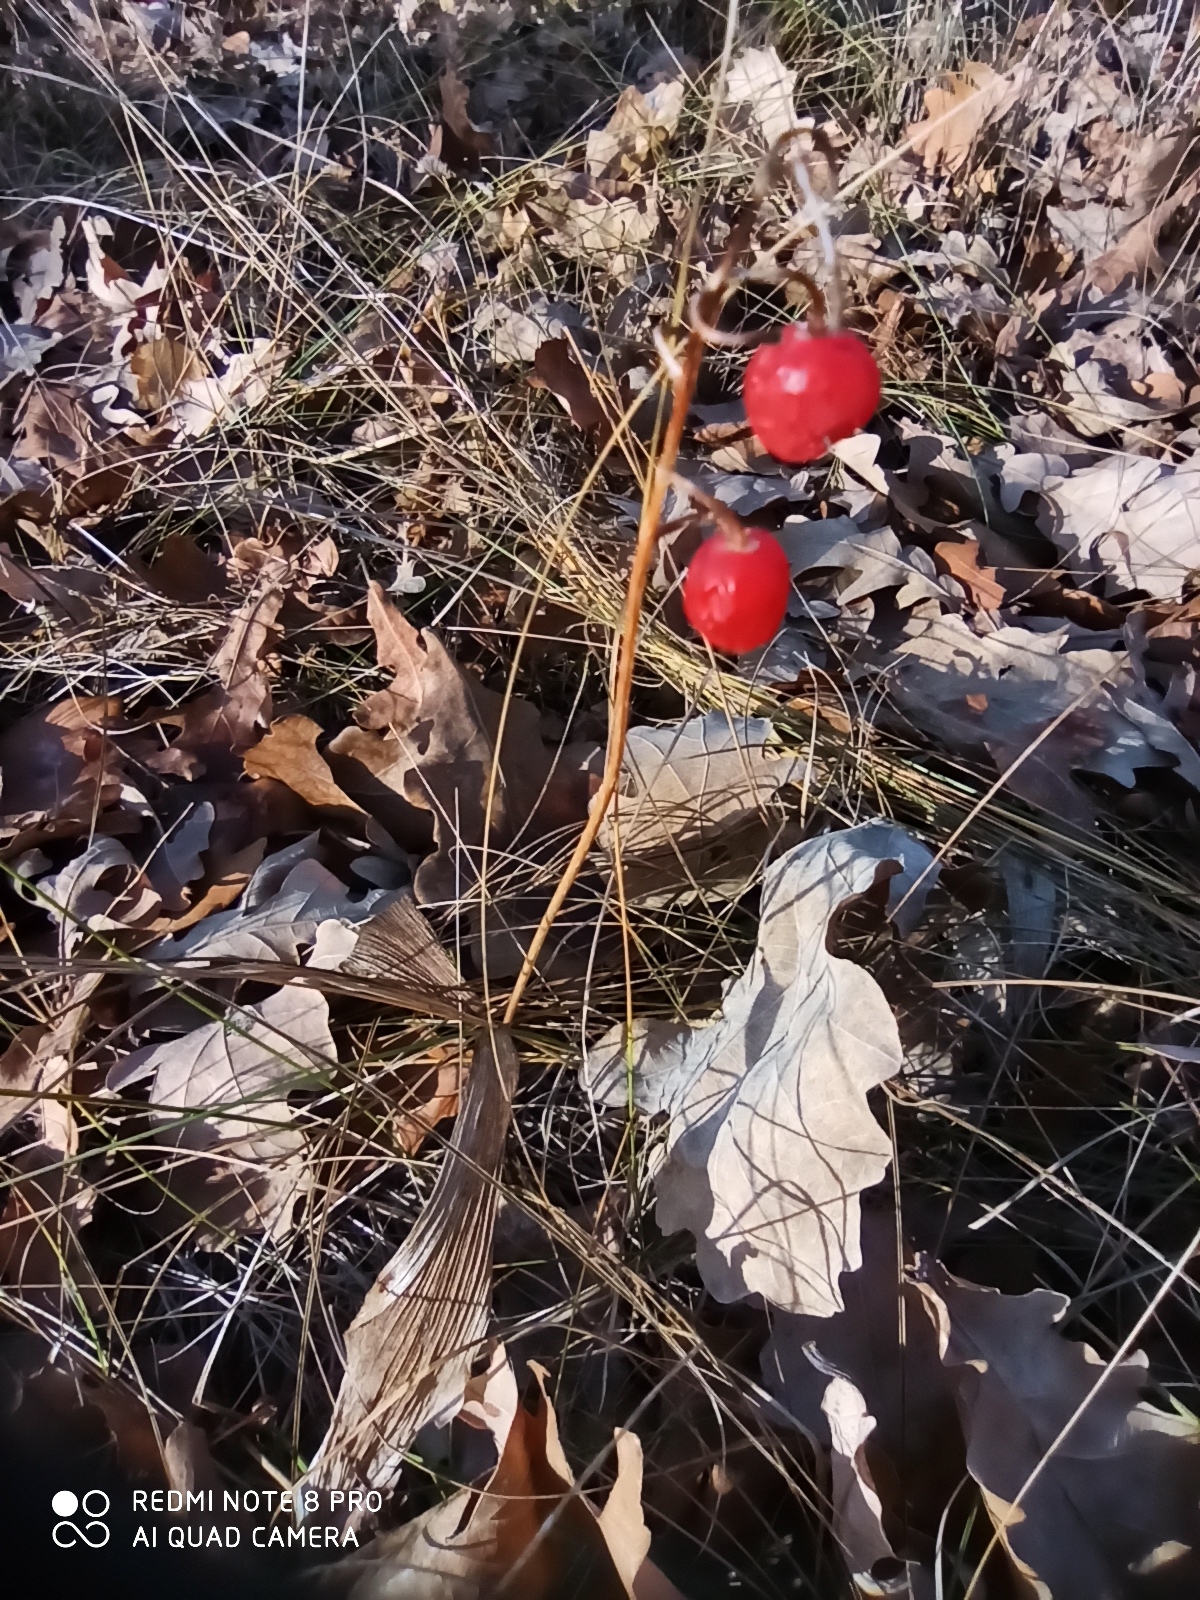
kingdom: Plantae
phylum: Tracheophyta
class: Liliopsida
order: Asparagales
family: Asparagaceae
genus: Convallaria
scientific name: Convallaria majalis
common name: Lily-of-the-valley
